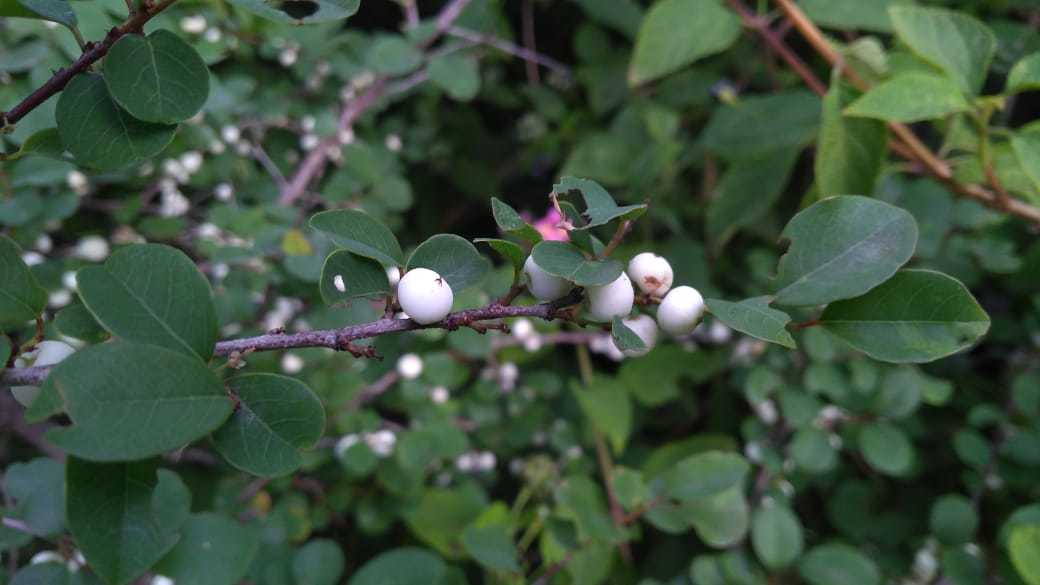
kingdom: Plantae
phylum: Tracheophyta
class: Magnoliopsida
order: Malpighiales
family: Phyllanthaceae
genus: Flueggea
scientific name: Flueggea leucopyrus
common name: Bushweed
